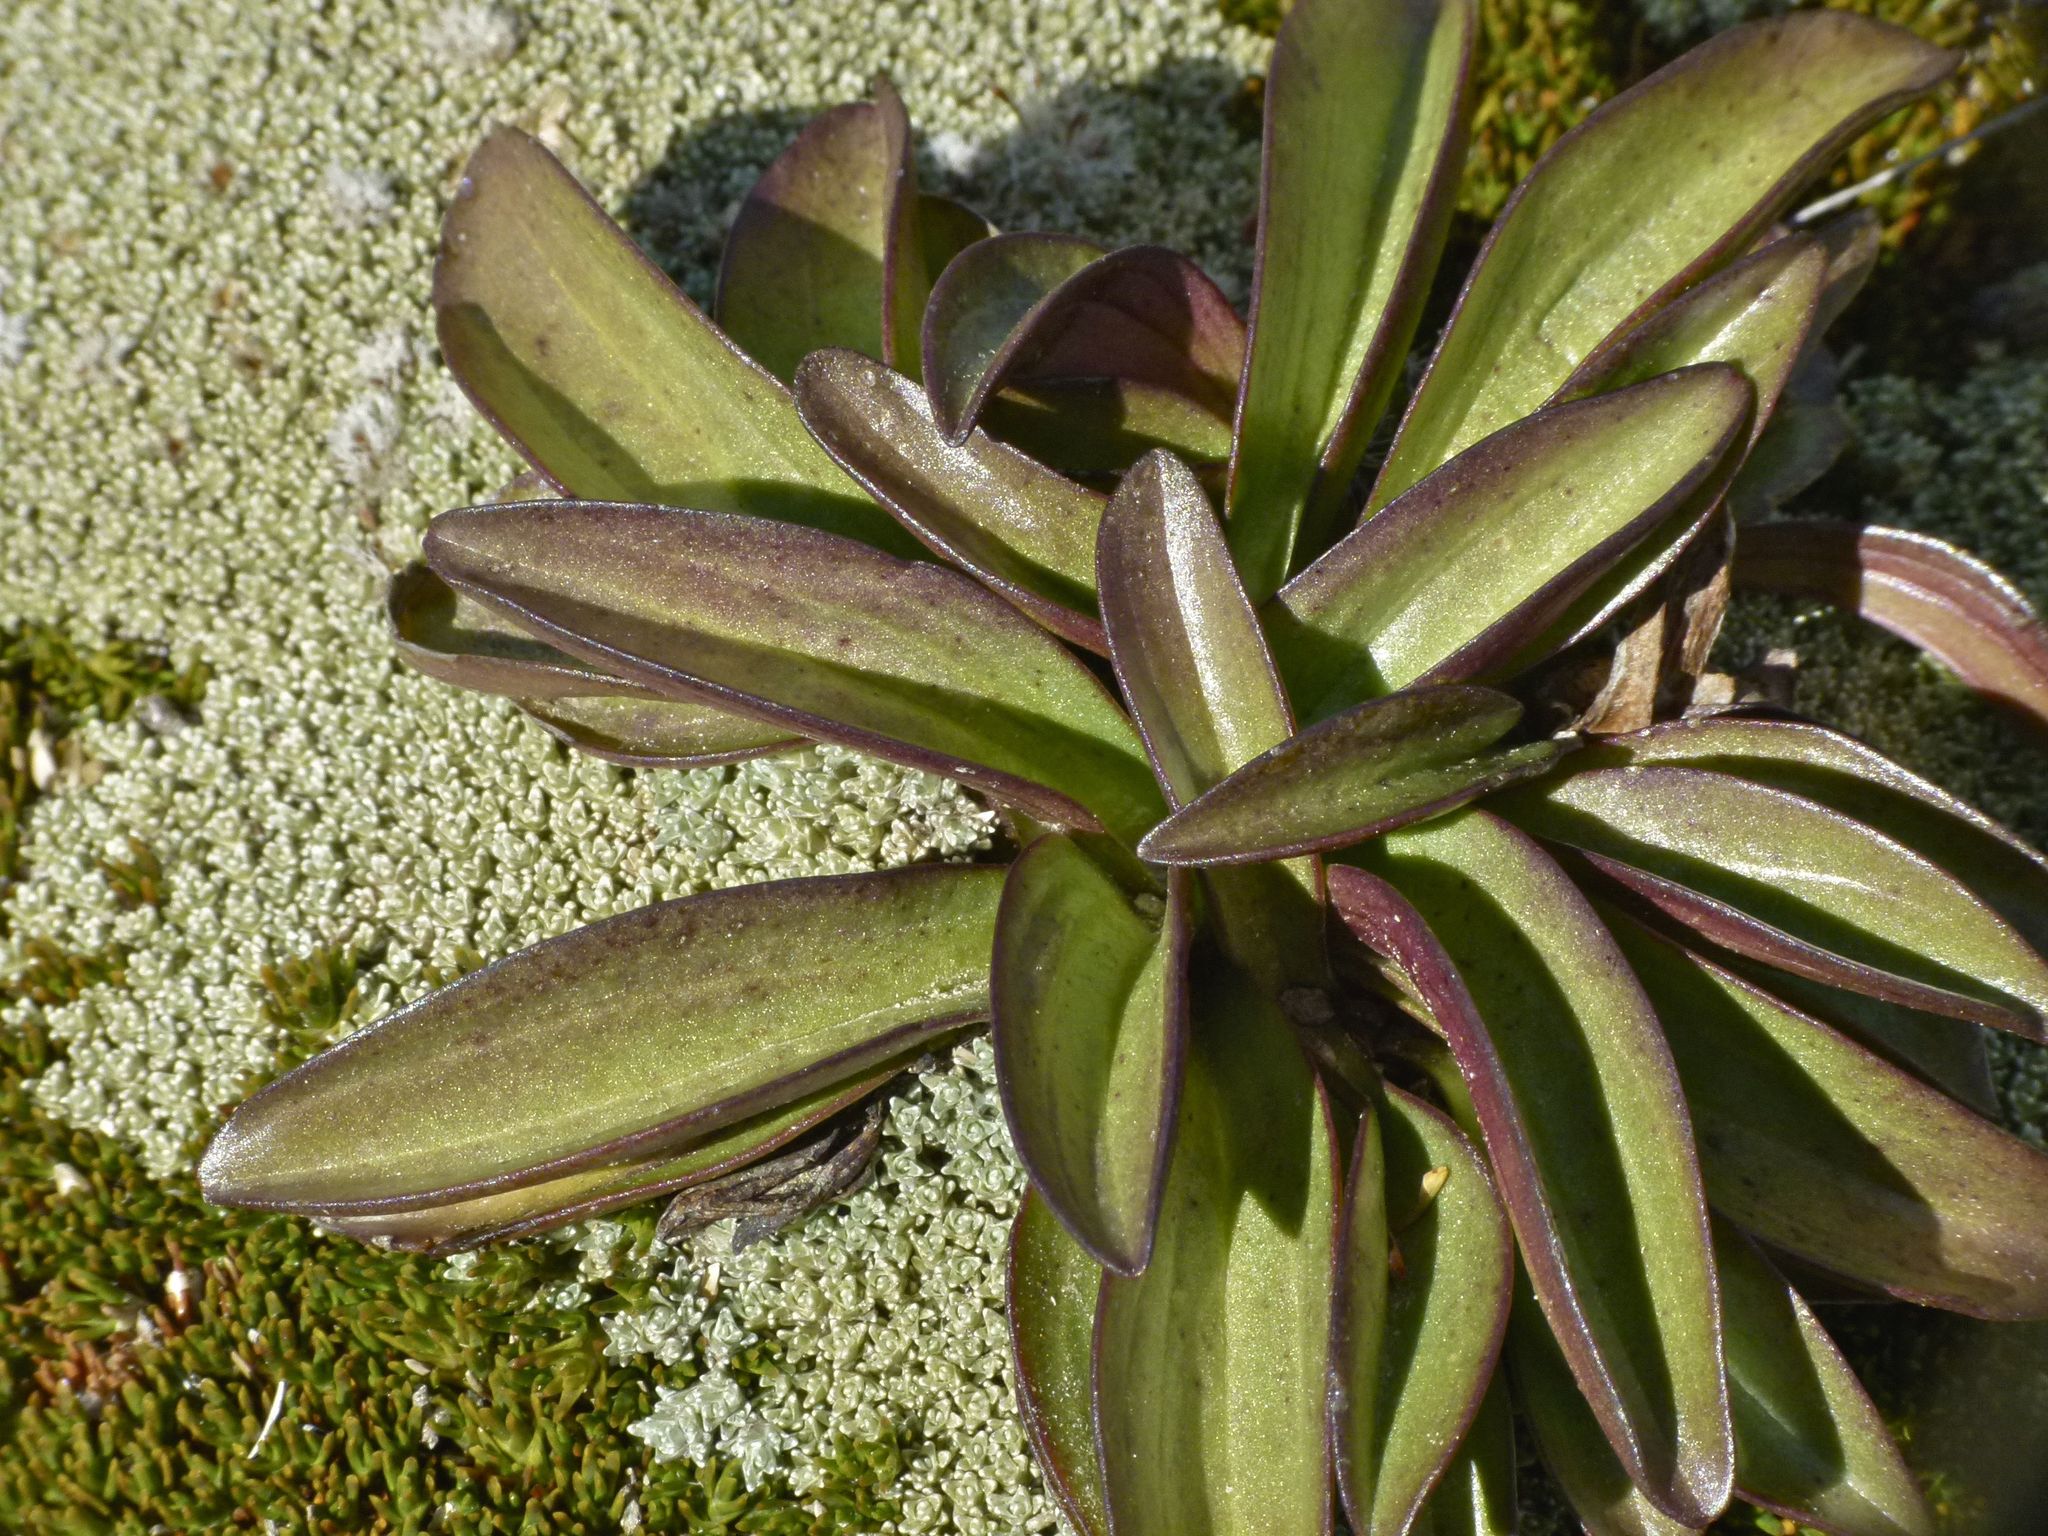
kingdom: Plantae
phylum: Tracheophyta
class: Magnoliopsida
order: Gentianales
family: Gentianaceae
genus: Gentianella
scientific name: Gentianella bellidifolia
